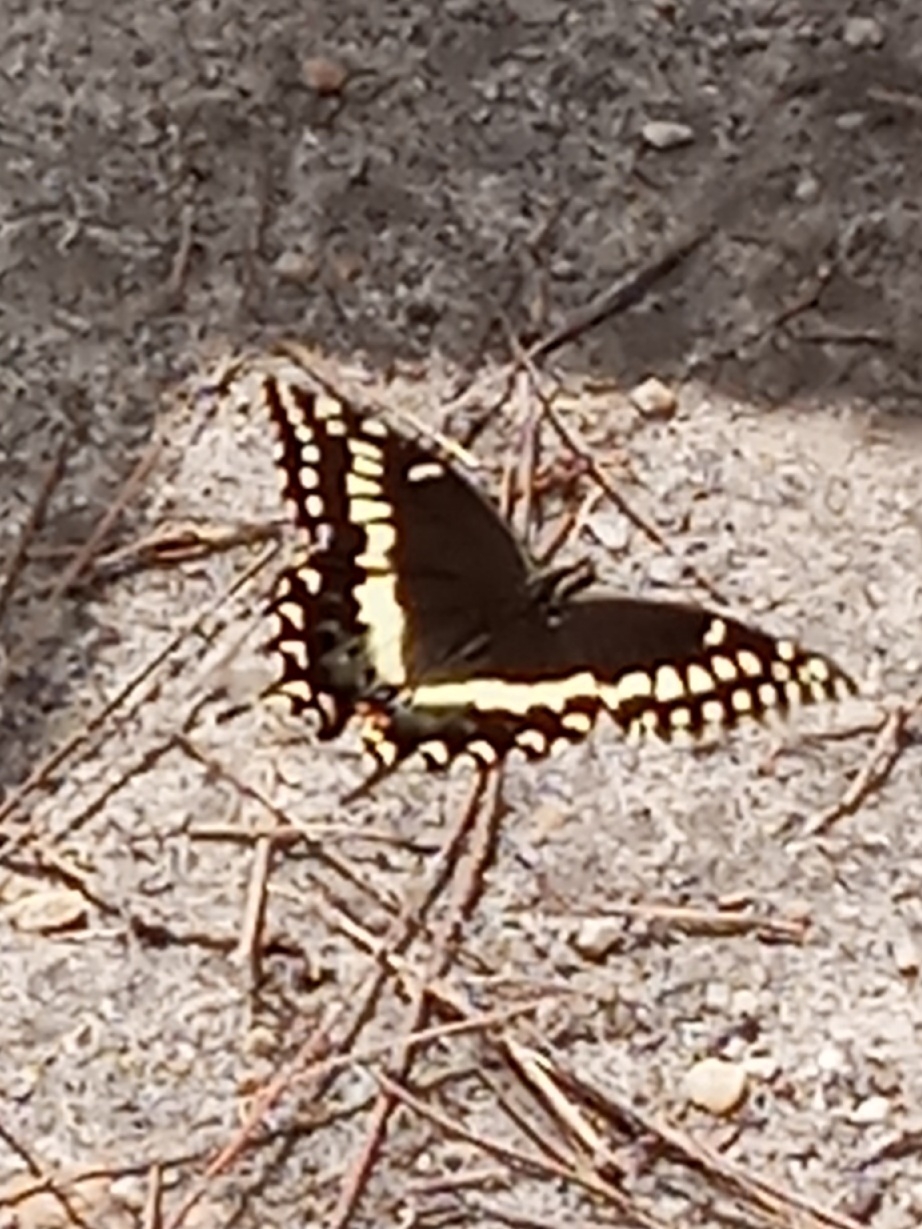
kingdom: Animalia
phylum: Arthropoda
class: Insecta
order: Lepidoptera
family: Papilionidae
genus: Papilio
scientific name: Papilio palamedes
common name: Palamedes swallowtail
